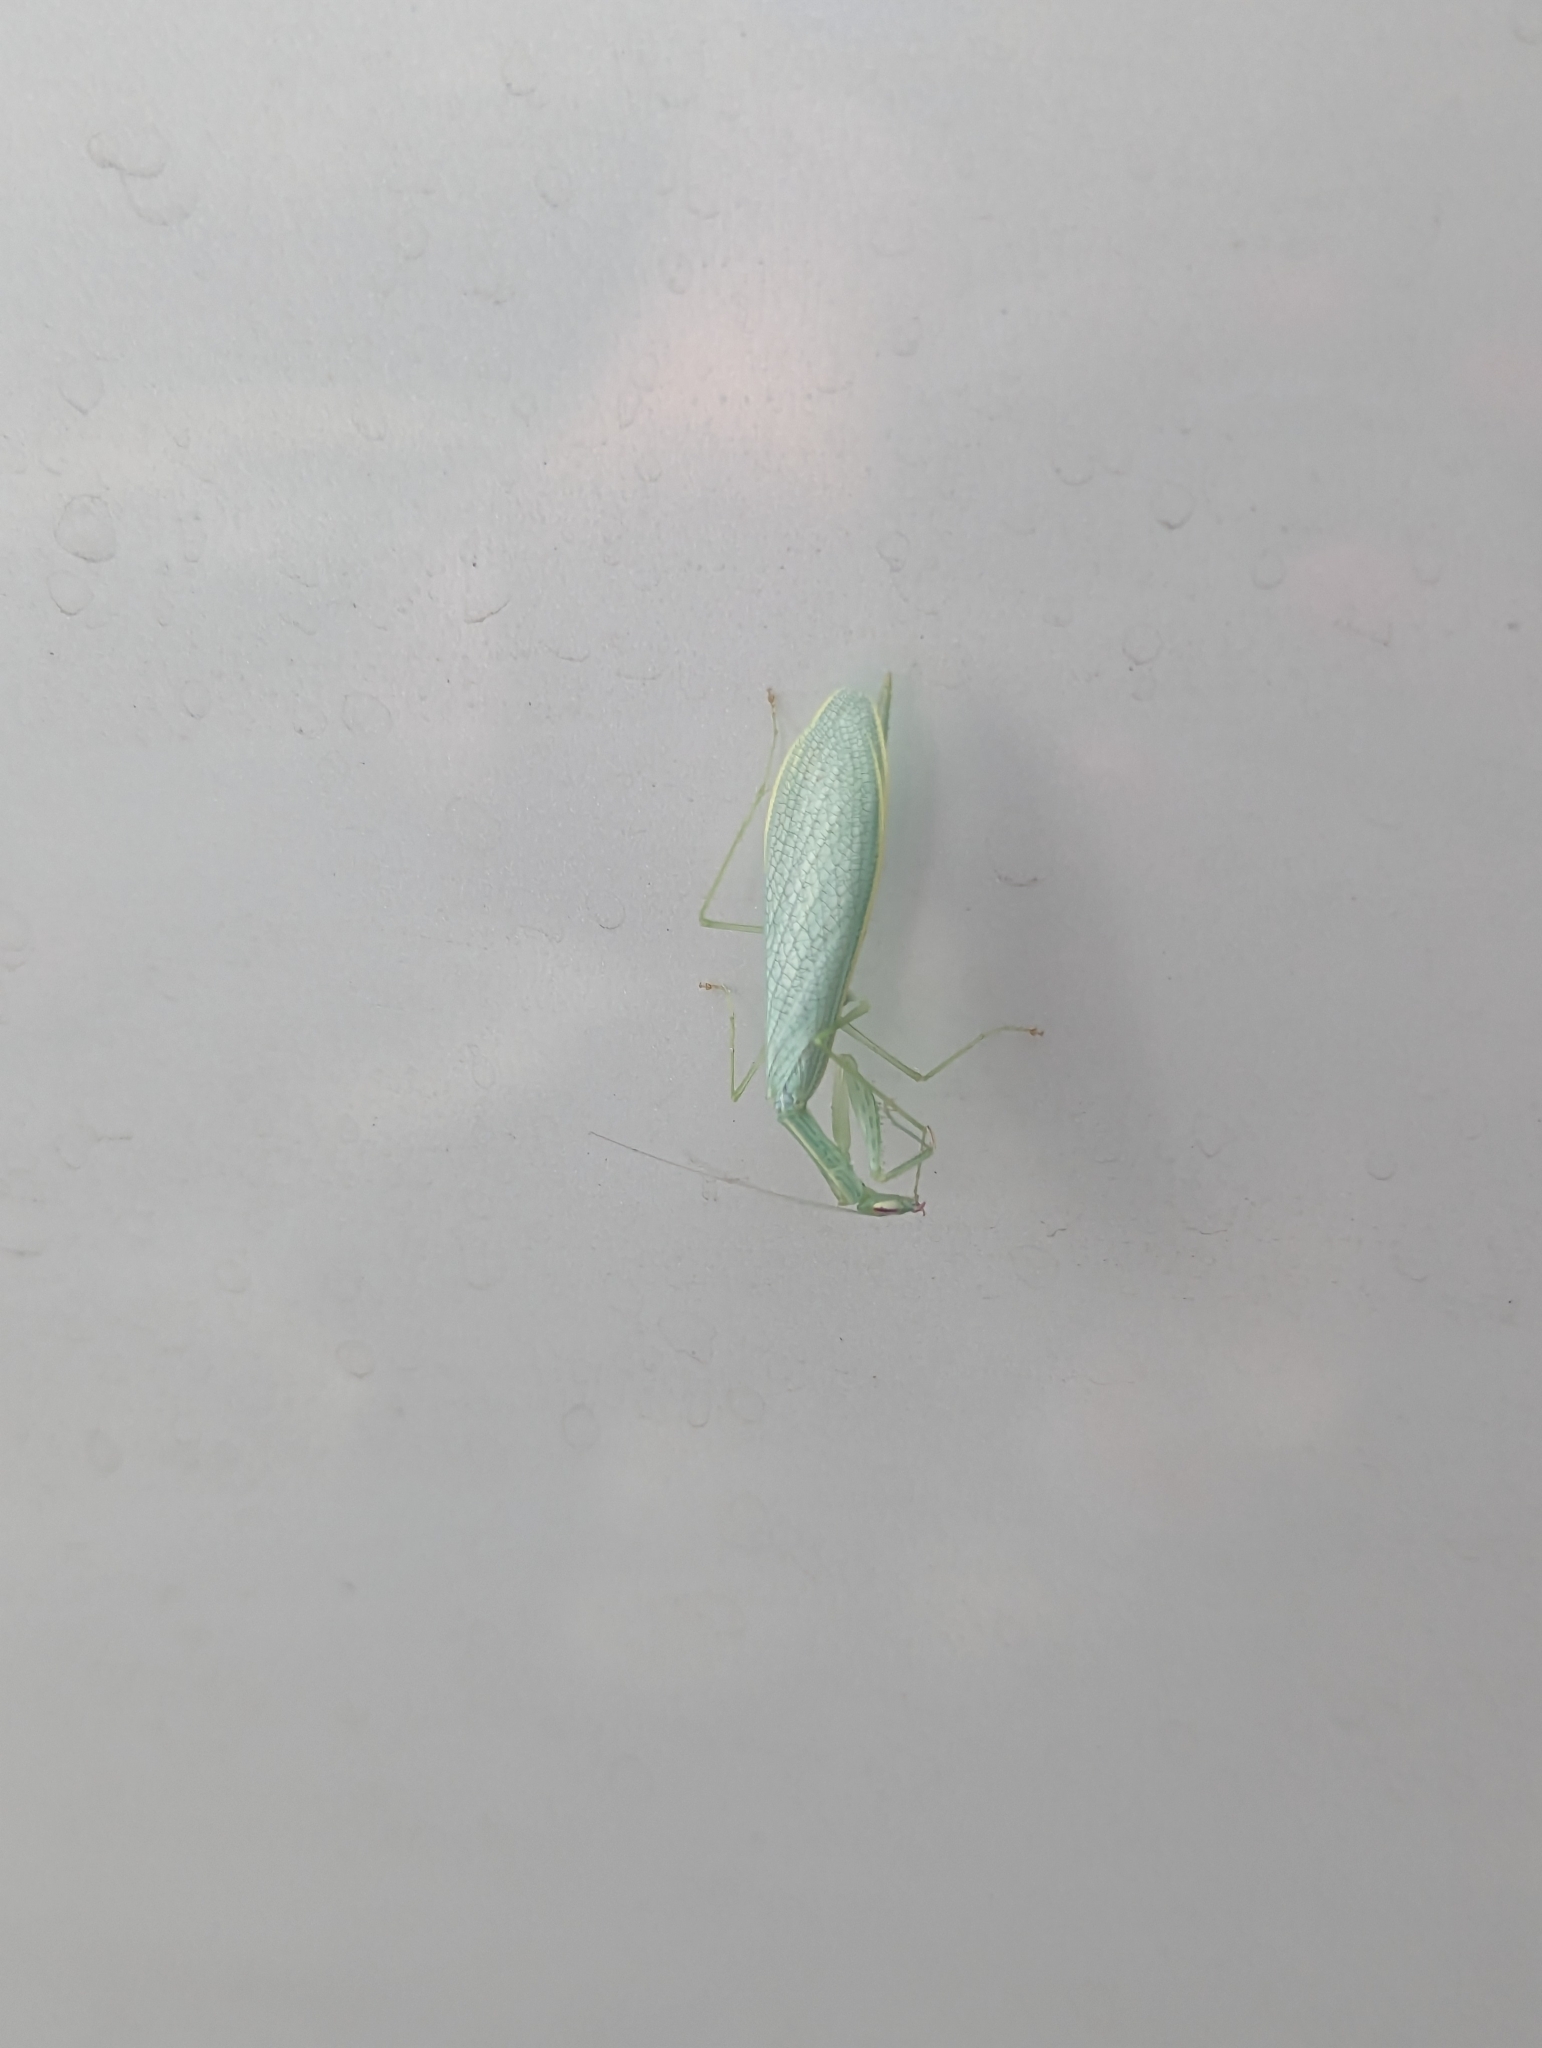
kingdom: Animalia
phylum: Arthropoda
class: Insecta
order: Mantodea
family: Nanomantidae
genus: Kongobatha
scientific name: Kongobatha diademata
